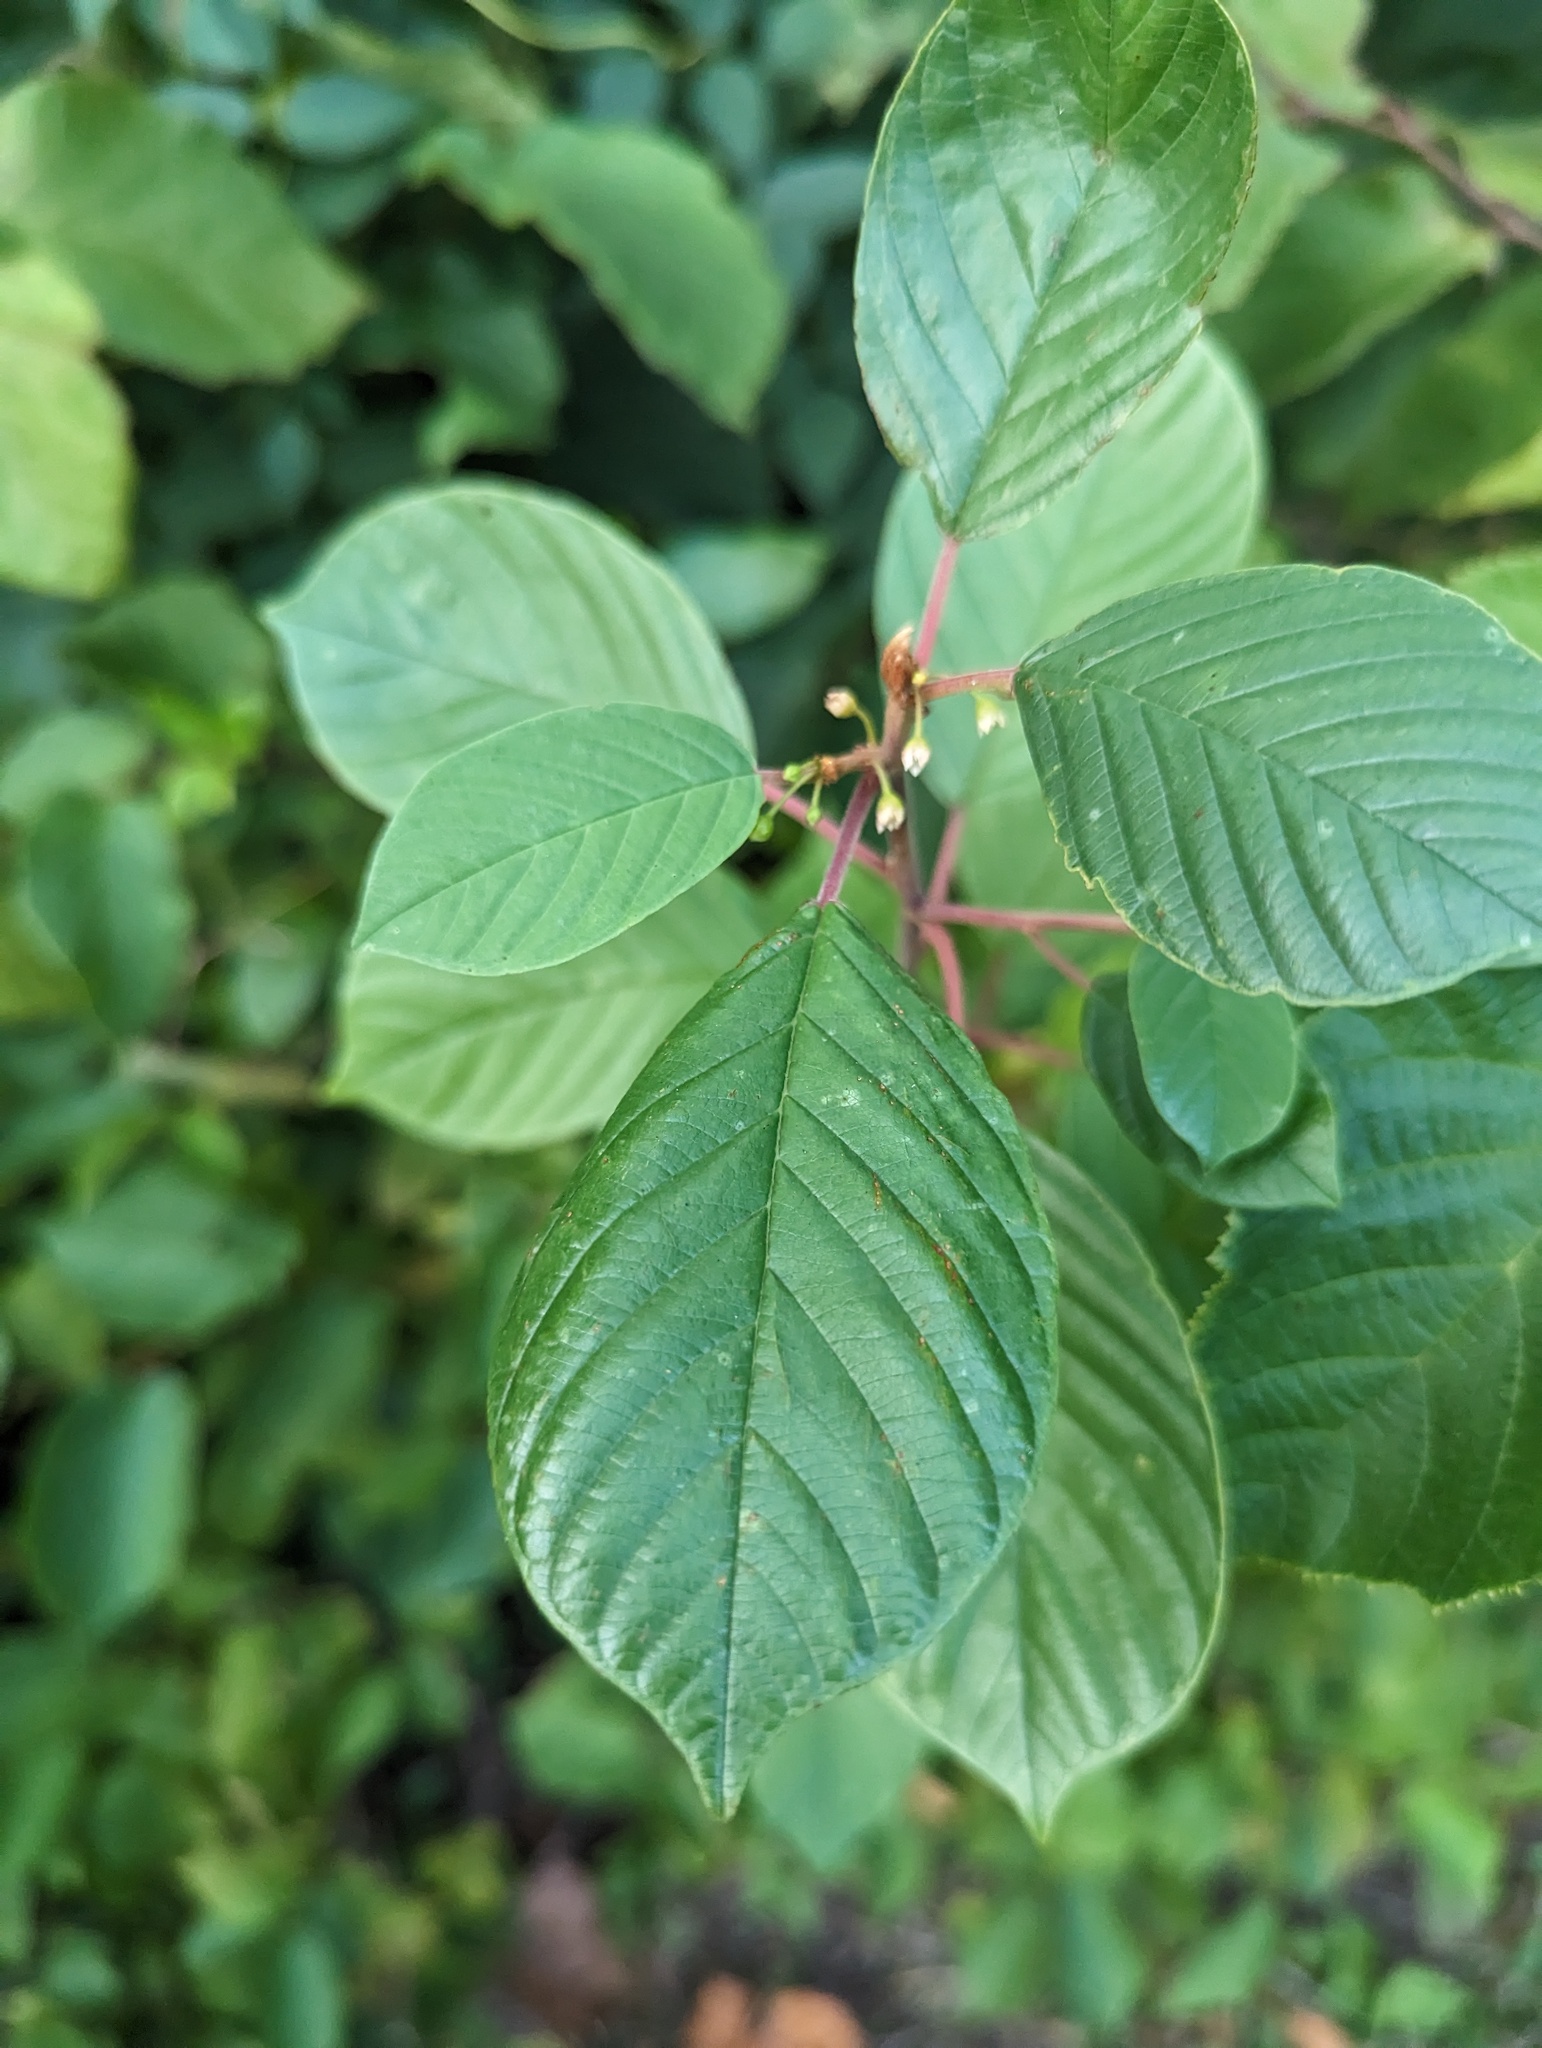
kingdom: Plantae
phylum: Tracheophyta
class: Magnoliopsida
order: Rosales
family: Rhamnaceae
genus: Frangula
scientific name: Frangula alnus
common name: Alder buckthorn
